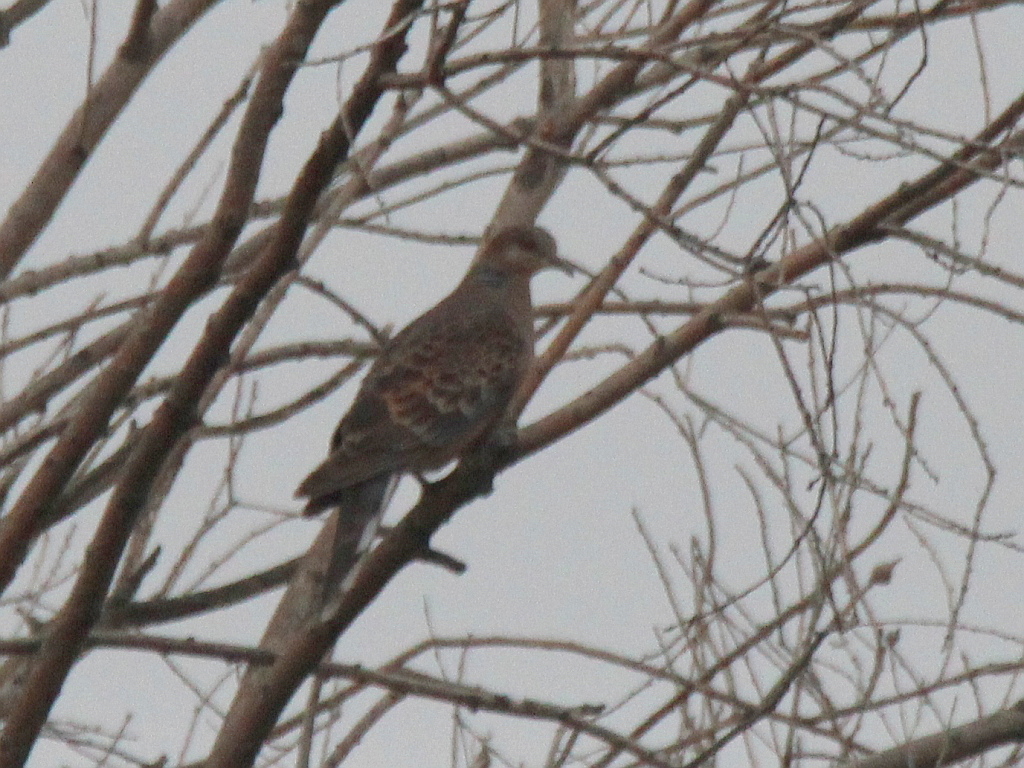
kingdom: Animalia
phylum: Chordata
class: Aves
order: Columbiformes
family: Columbidae
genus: Streptopelia
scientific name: Streptopelia orientalis
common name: Oriental turtle dove
